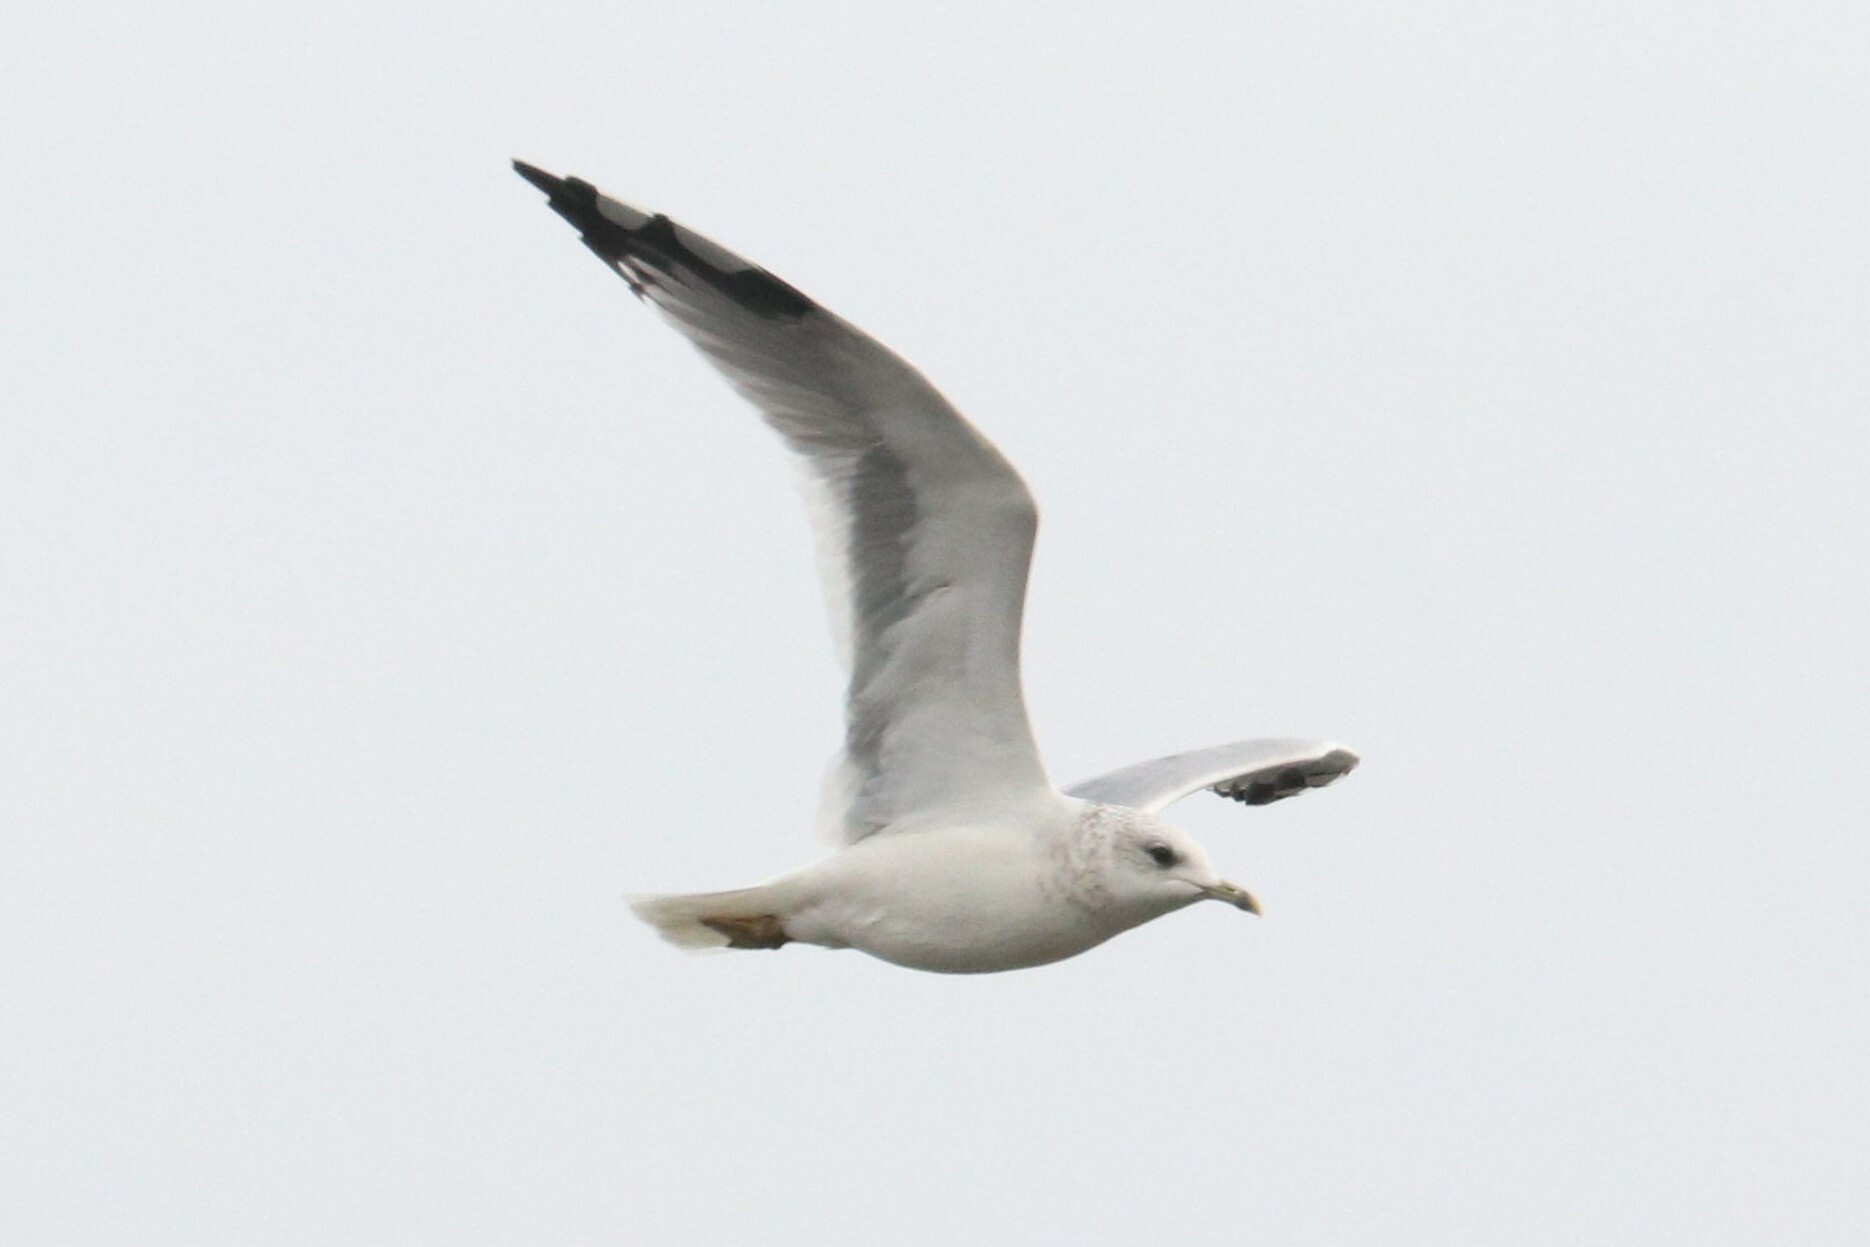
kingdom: Animalia
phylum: Chordata
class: Aves
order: Charadriiformes
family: Laridae
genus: Larus
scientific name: Larus canus
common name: Mew gull
